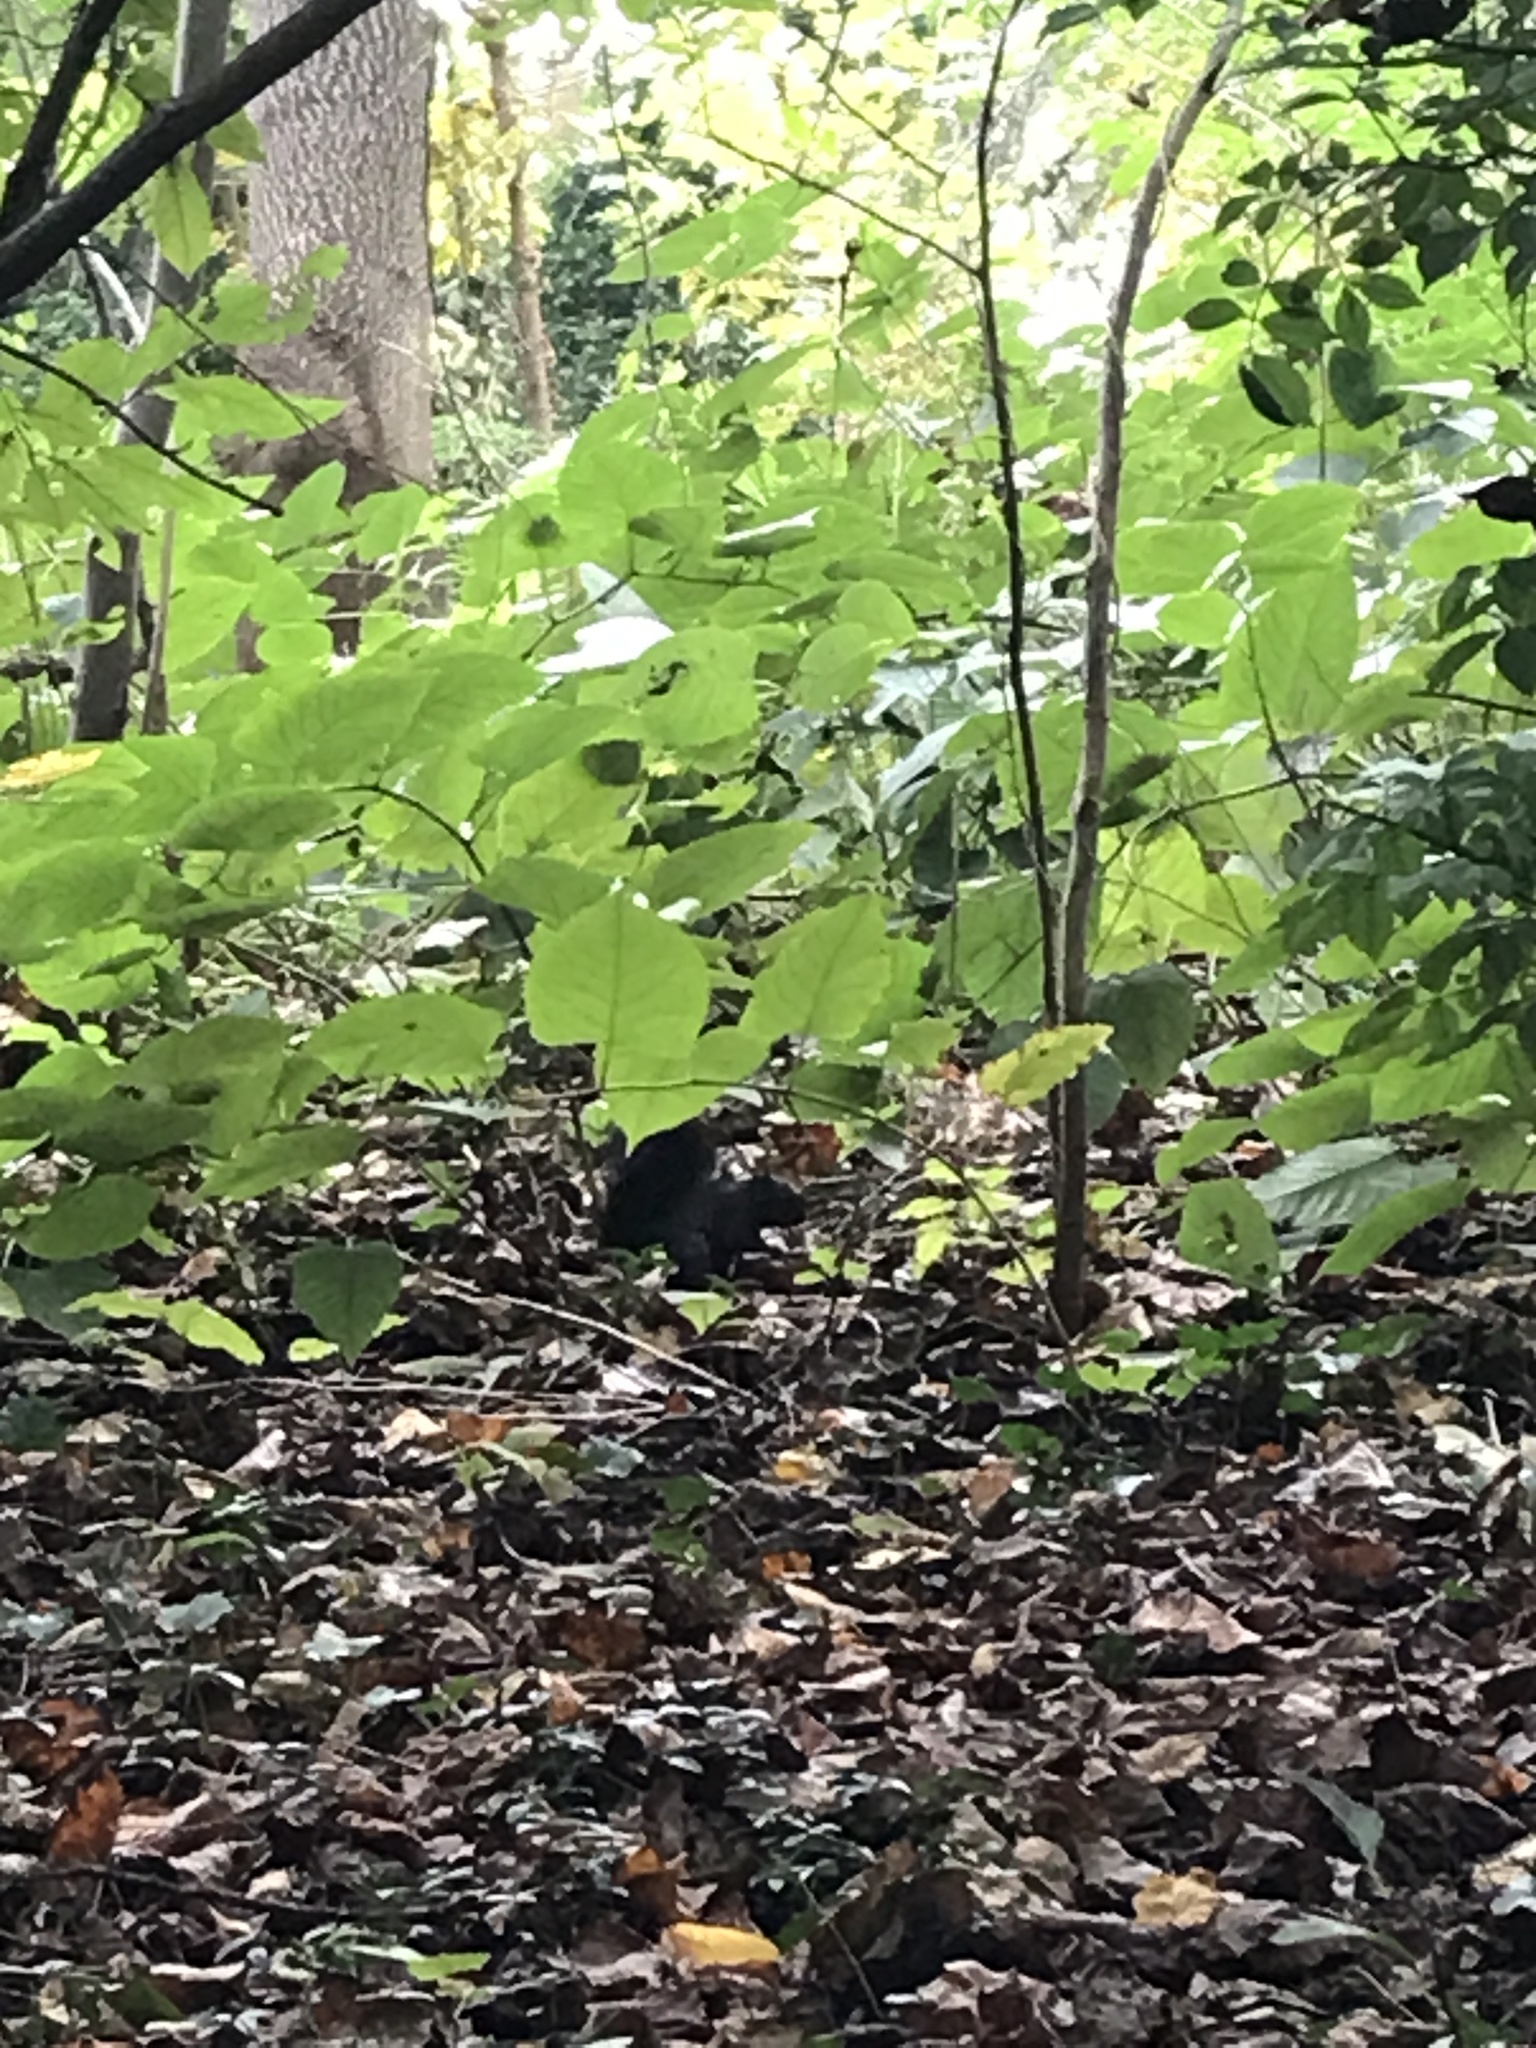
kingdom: Animalia
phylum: Chordata
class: Mammalia
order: Rodentia
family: Sciuridae
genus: Sciurus
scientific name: Sciurus carolinensis
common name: Eastern gray squirrel
